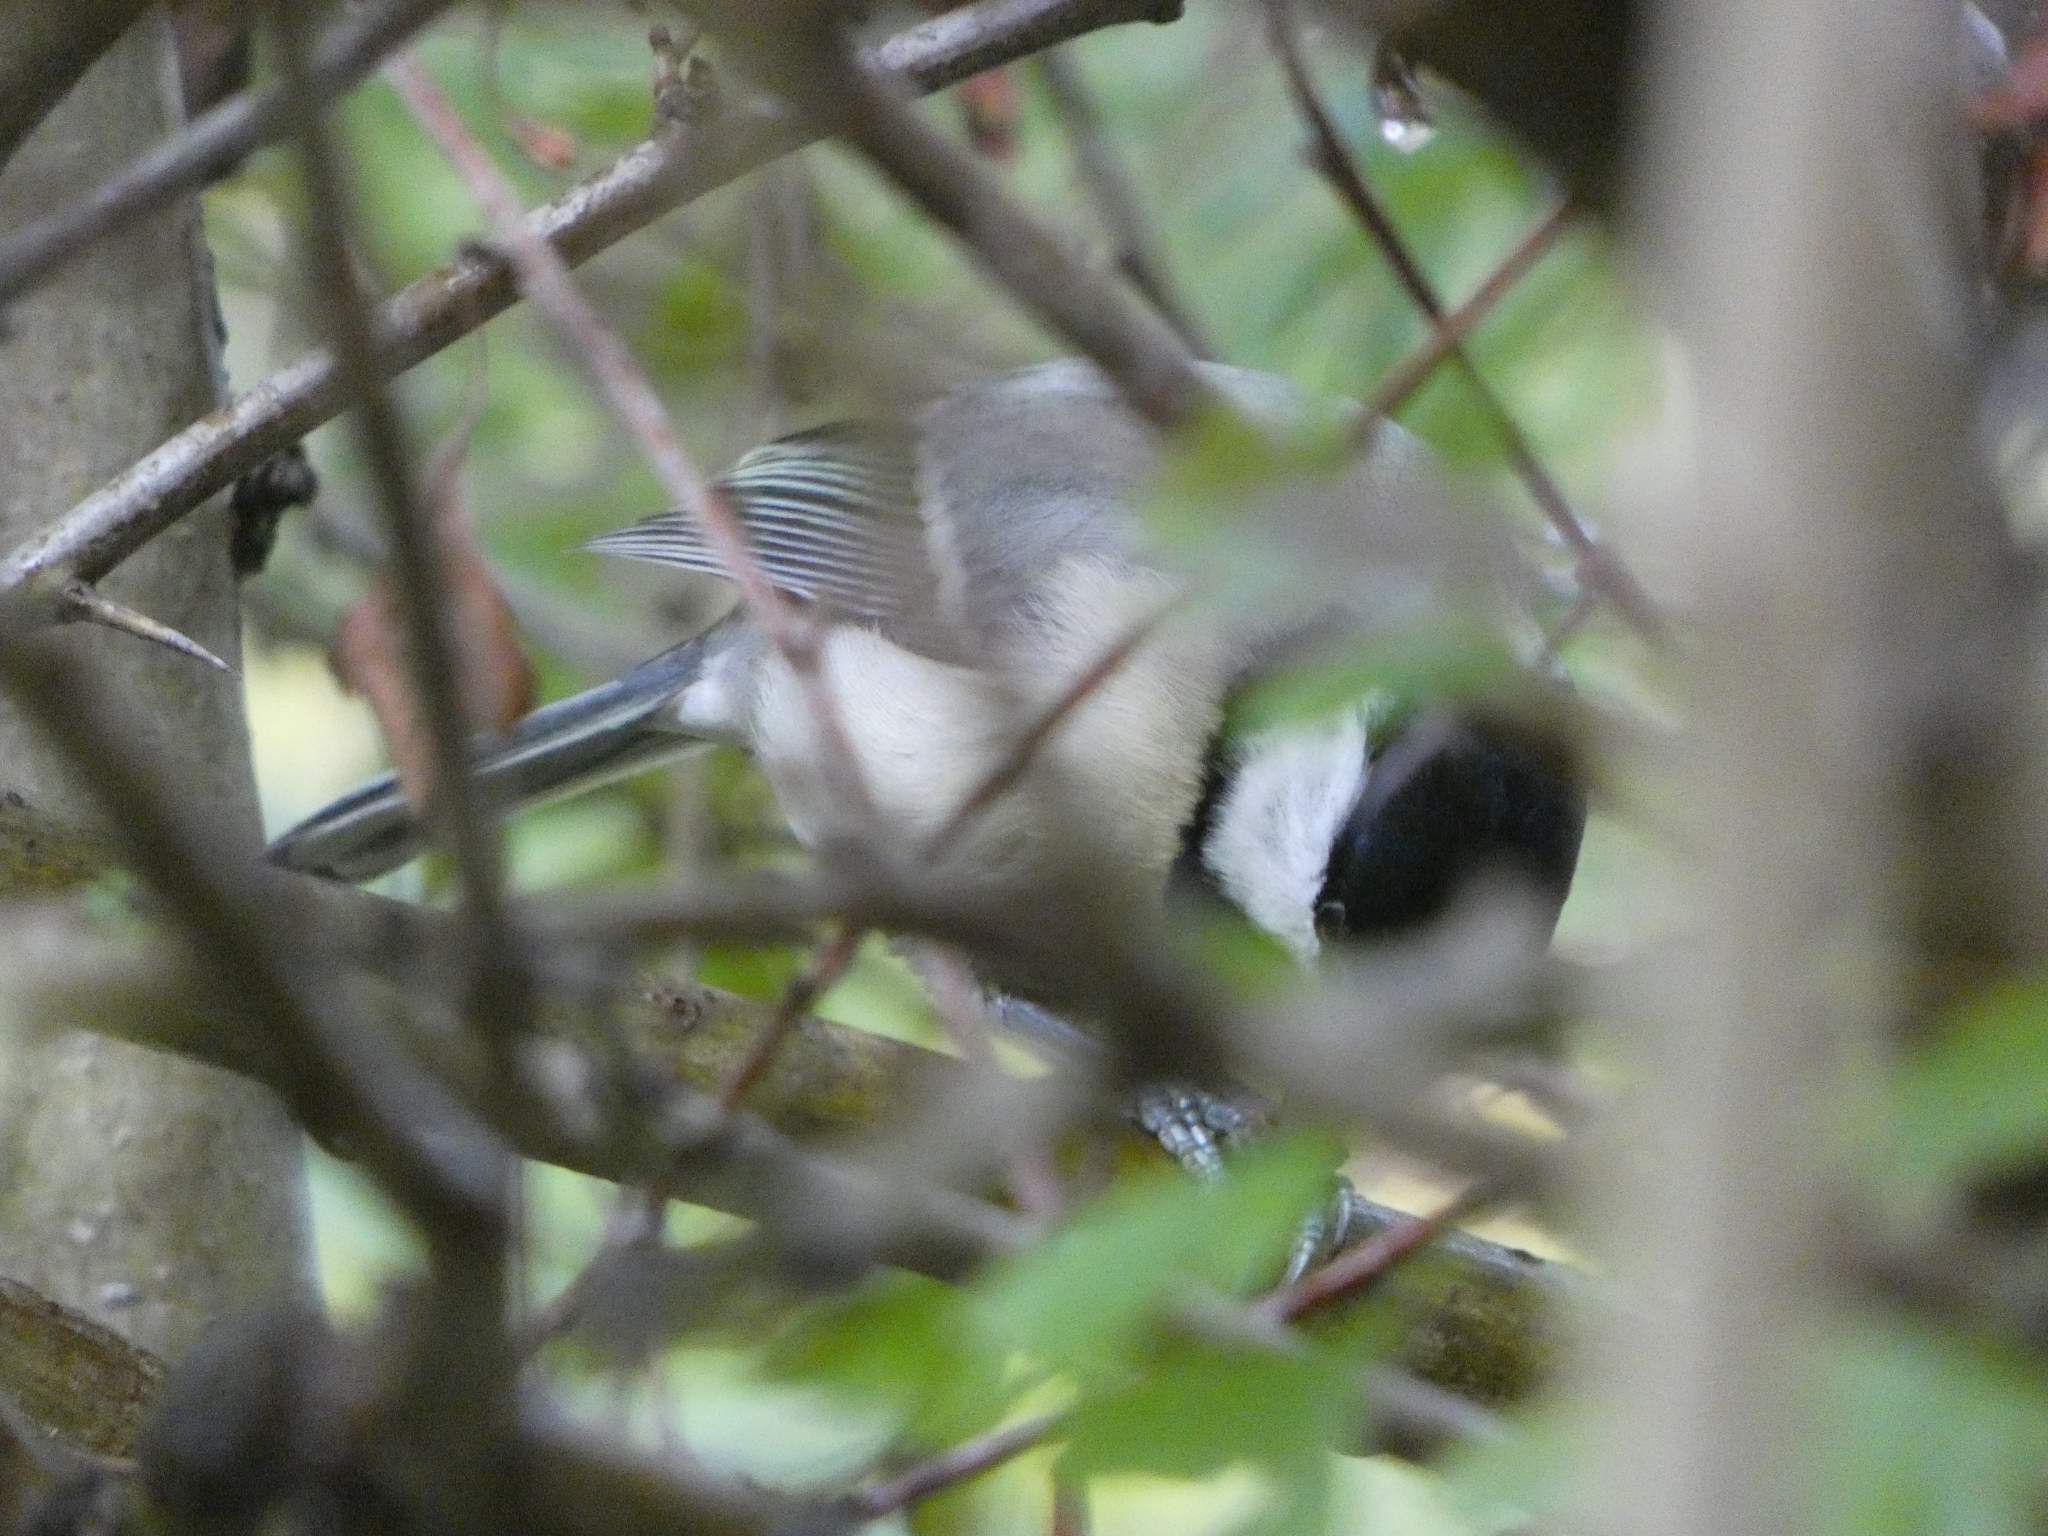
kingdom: Animalia
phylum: Chordata
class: Aves
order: Passeriformes
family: Paridae
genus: Parus
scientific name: Parus major
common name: Great tit
